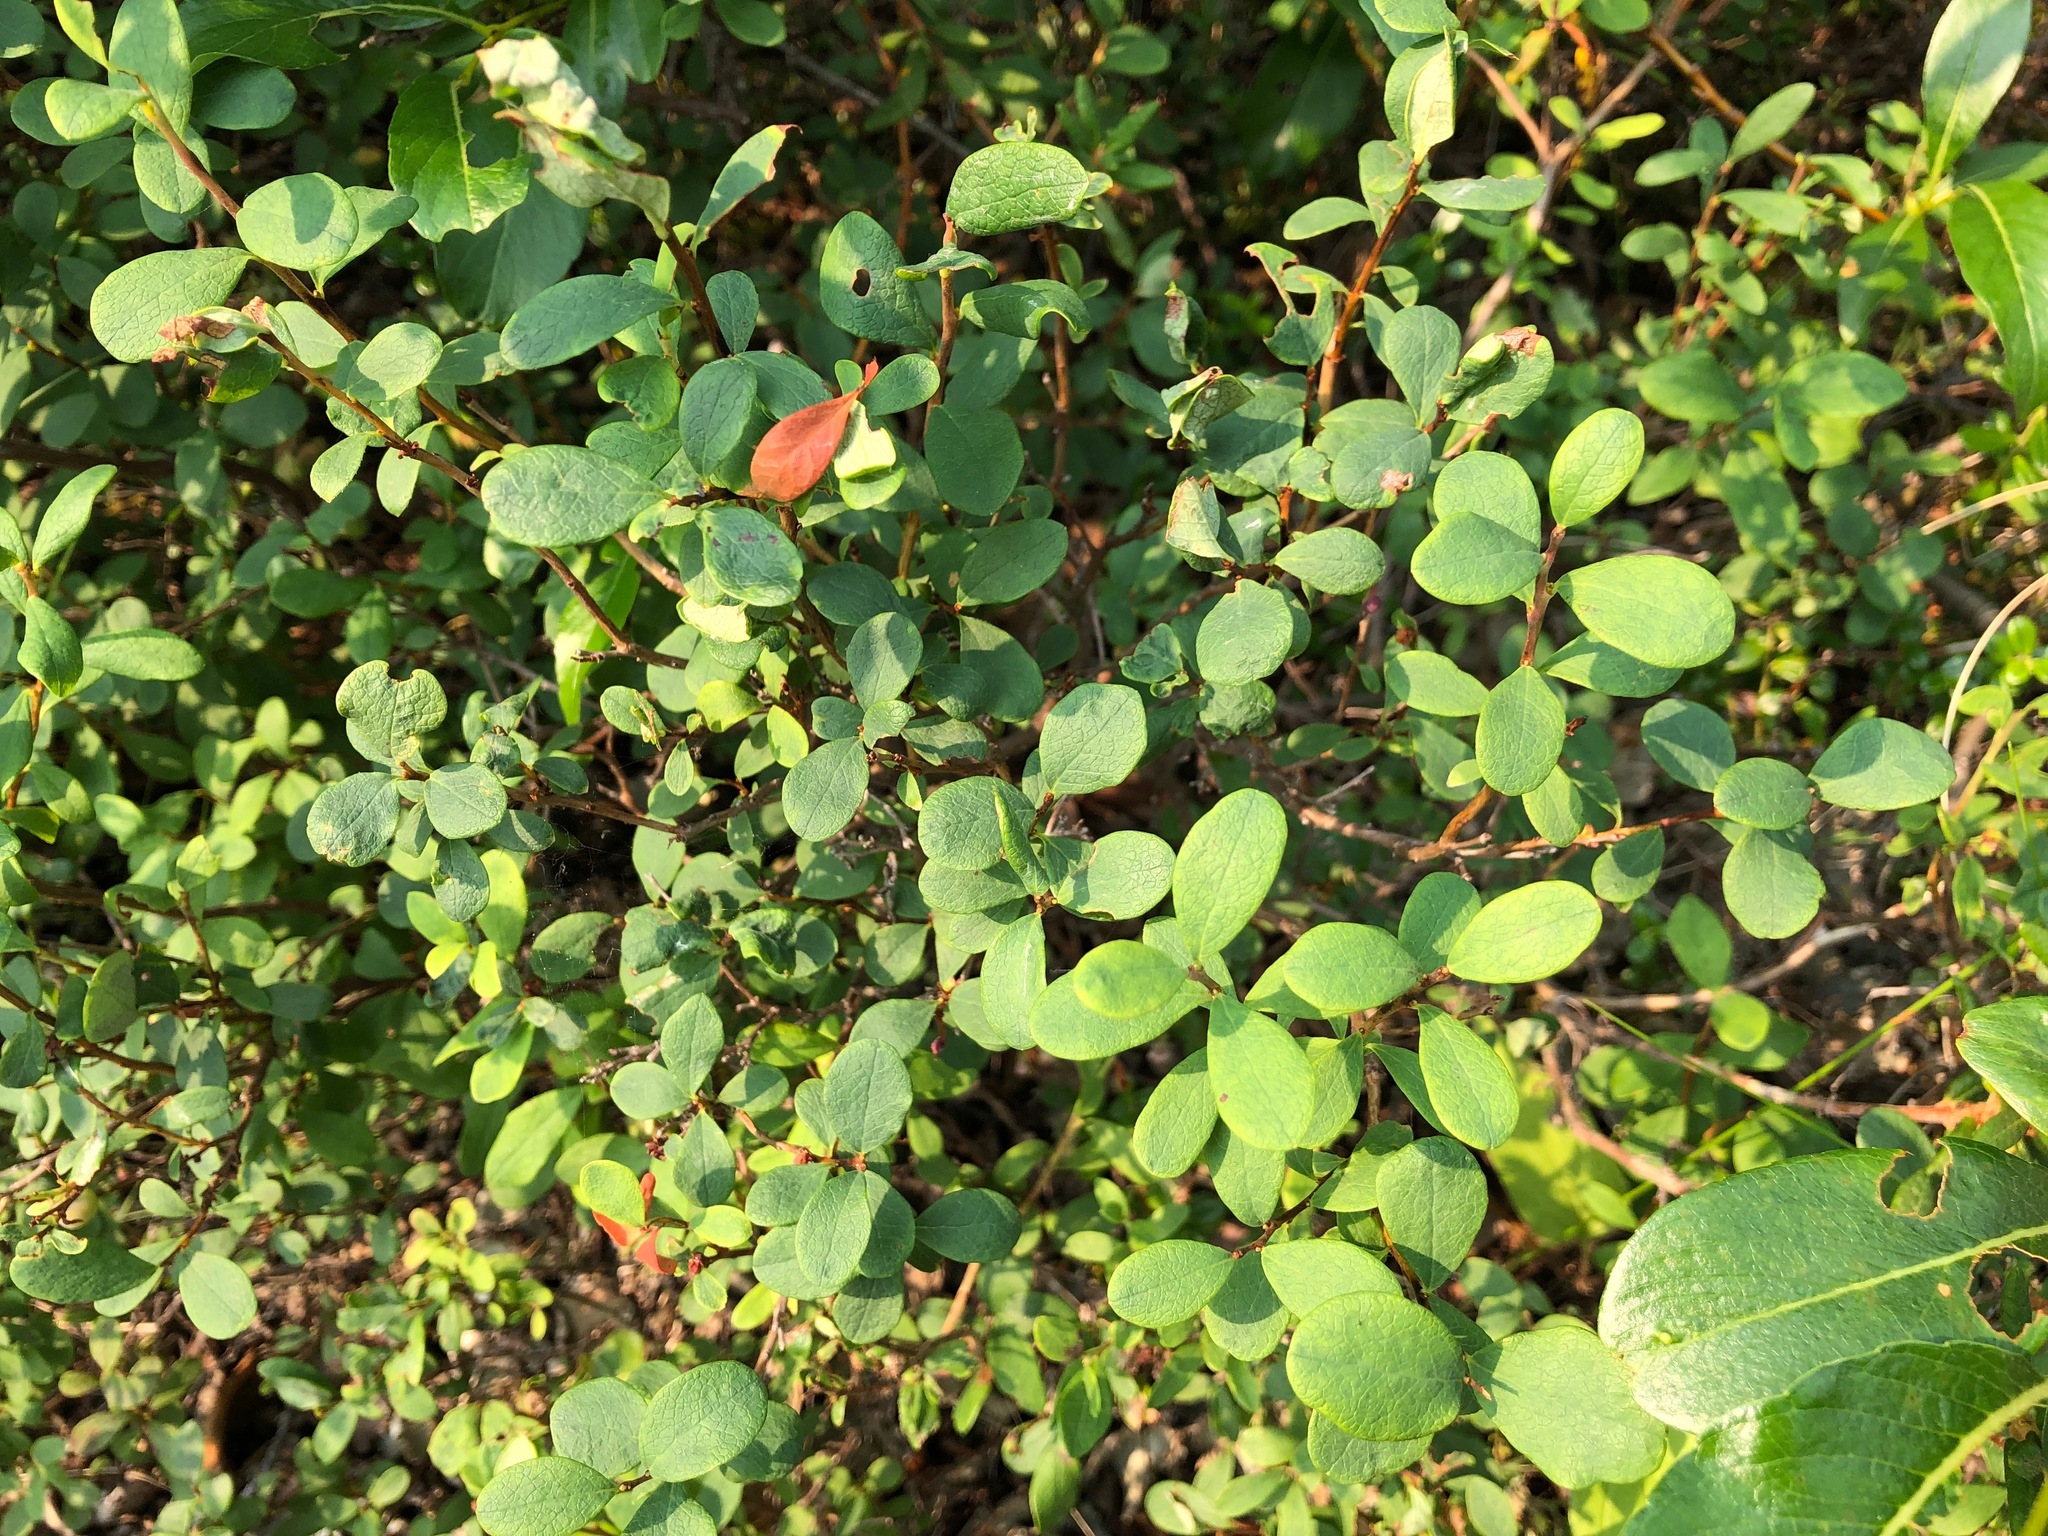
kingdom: Plantae
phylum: Tracheophyta
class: Magnoliopsida
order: Ericales
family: Ericaceae
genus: Vaccinium
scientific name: Vaccinium uliginosum
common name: Bog bilberry
